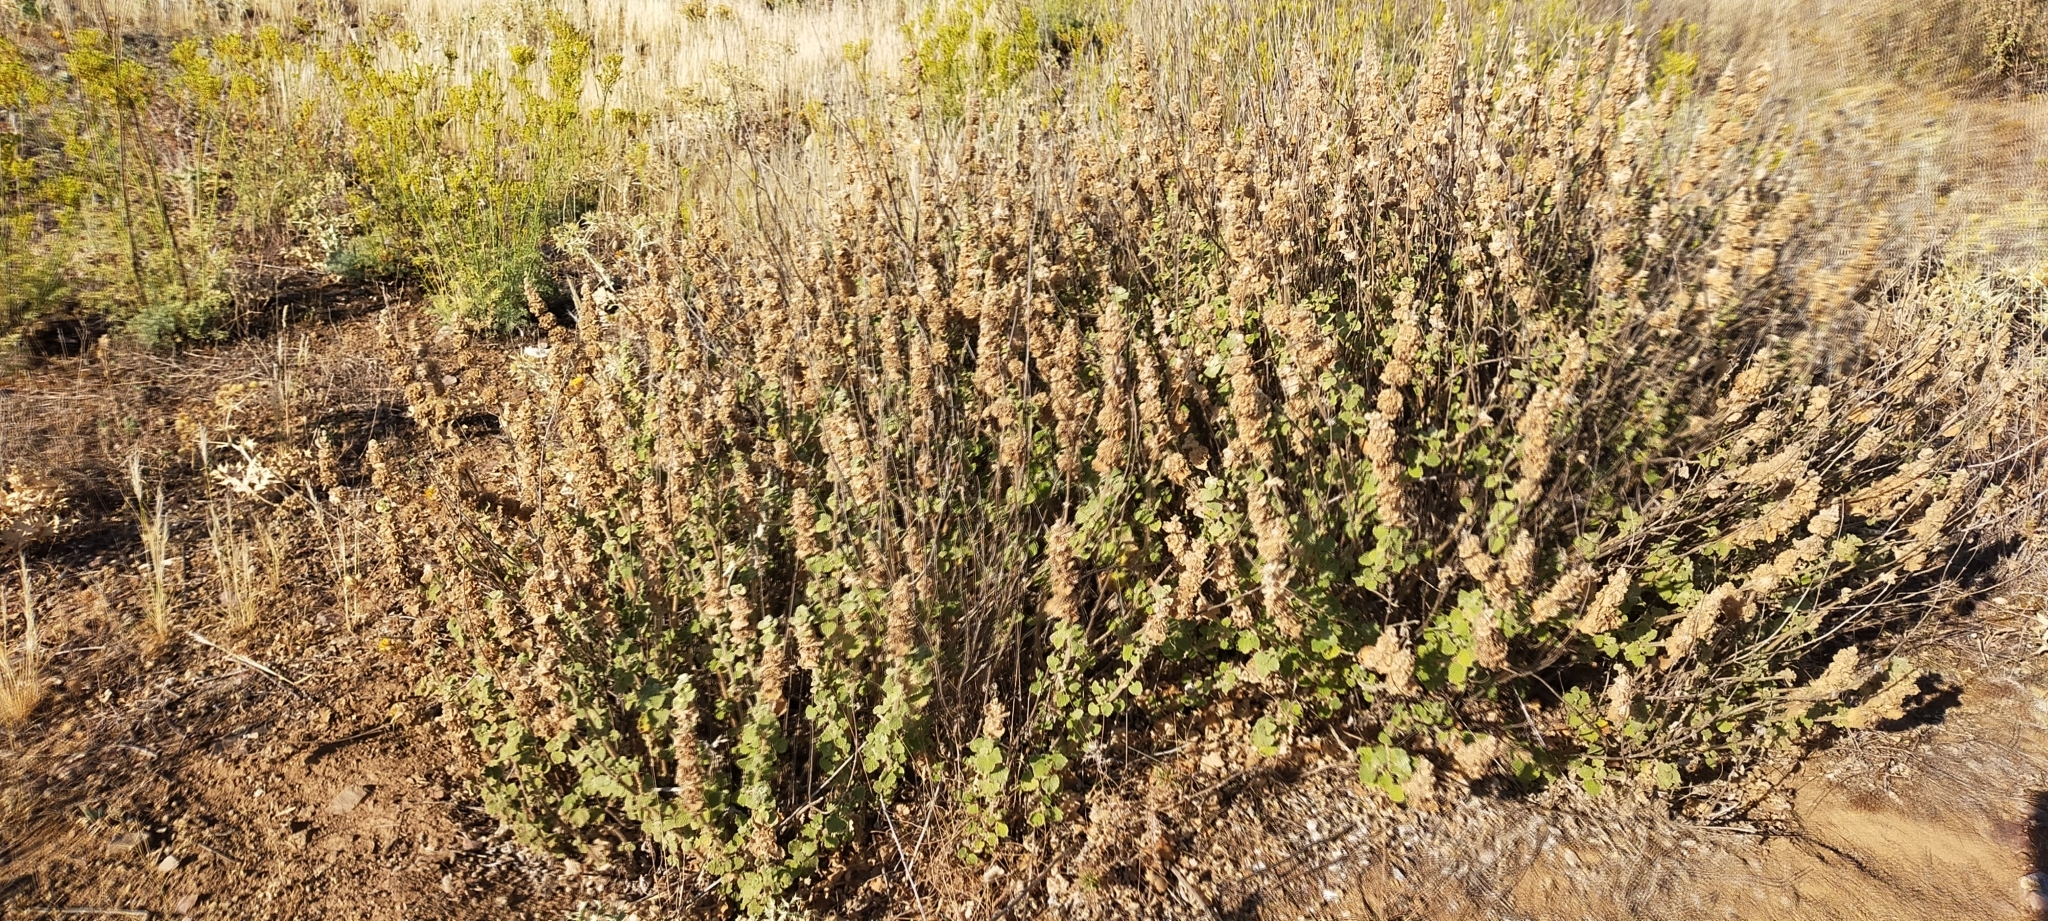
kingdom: Plantae
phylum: Tracheophyta
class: Magnoliopsida
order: Lamiales
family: Lamiaceae
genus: Pseudodictamnus
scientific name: Pseudodictamnus hirsutus
